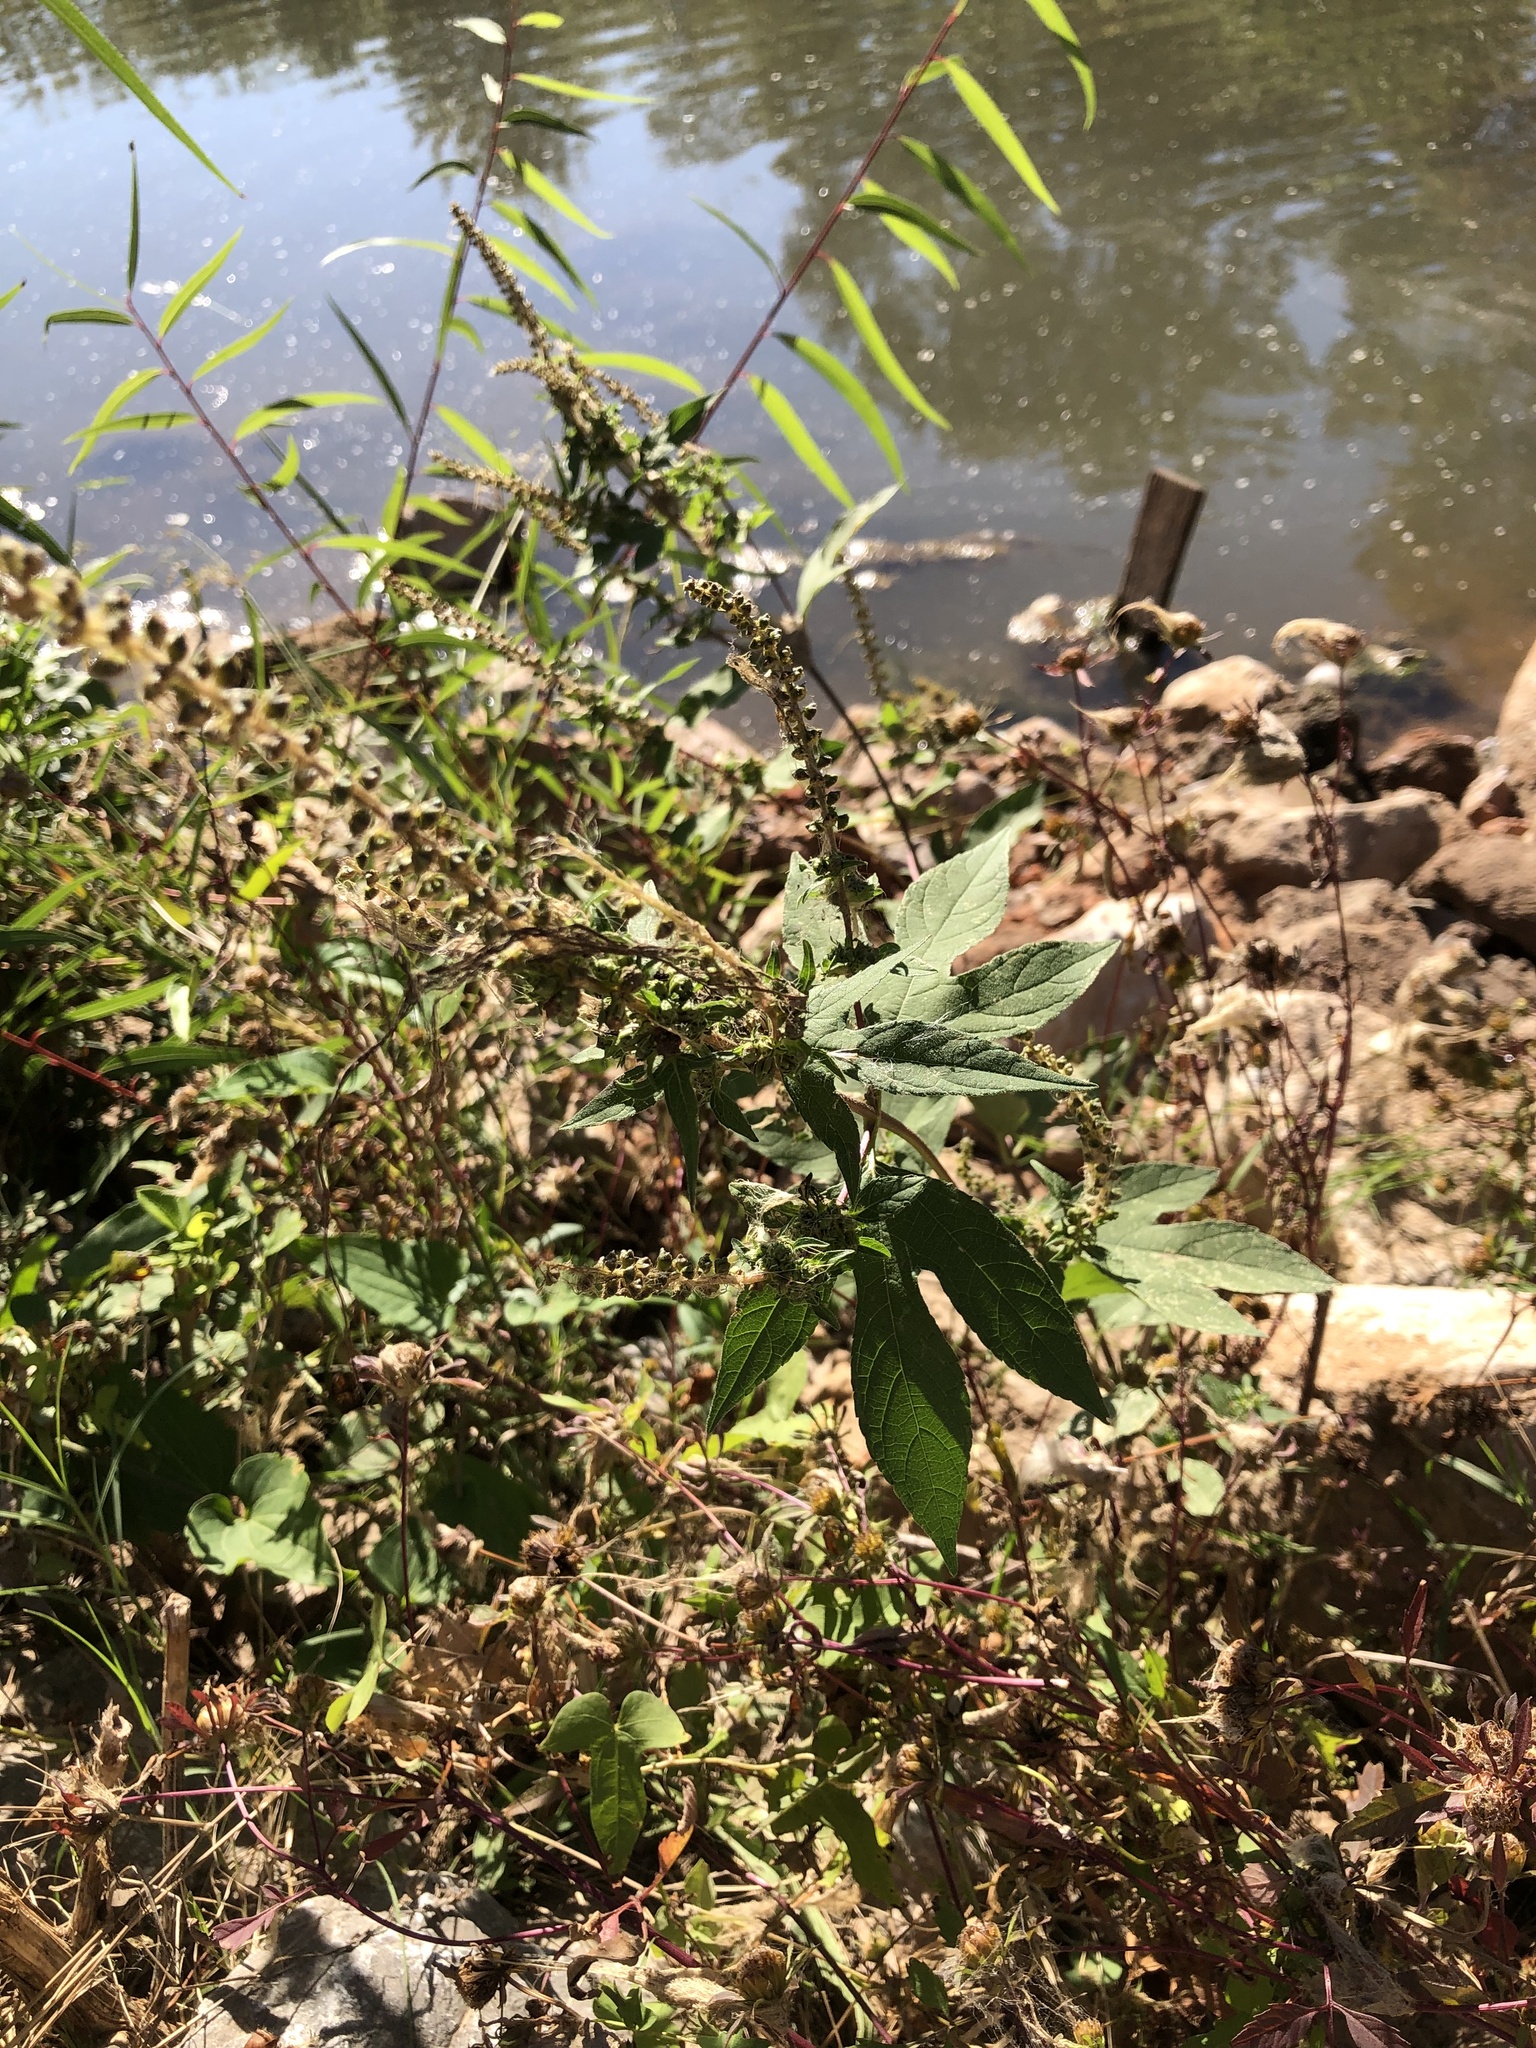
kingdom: Plantae
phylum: Tracheophyta
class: Magnoliopsida
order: Asterales
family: Asteraceae
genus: Ambrosia
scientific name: Ambrosia trifida
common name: Giant ragweed
